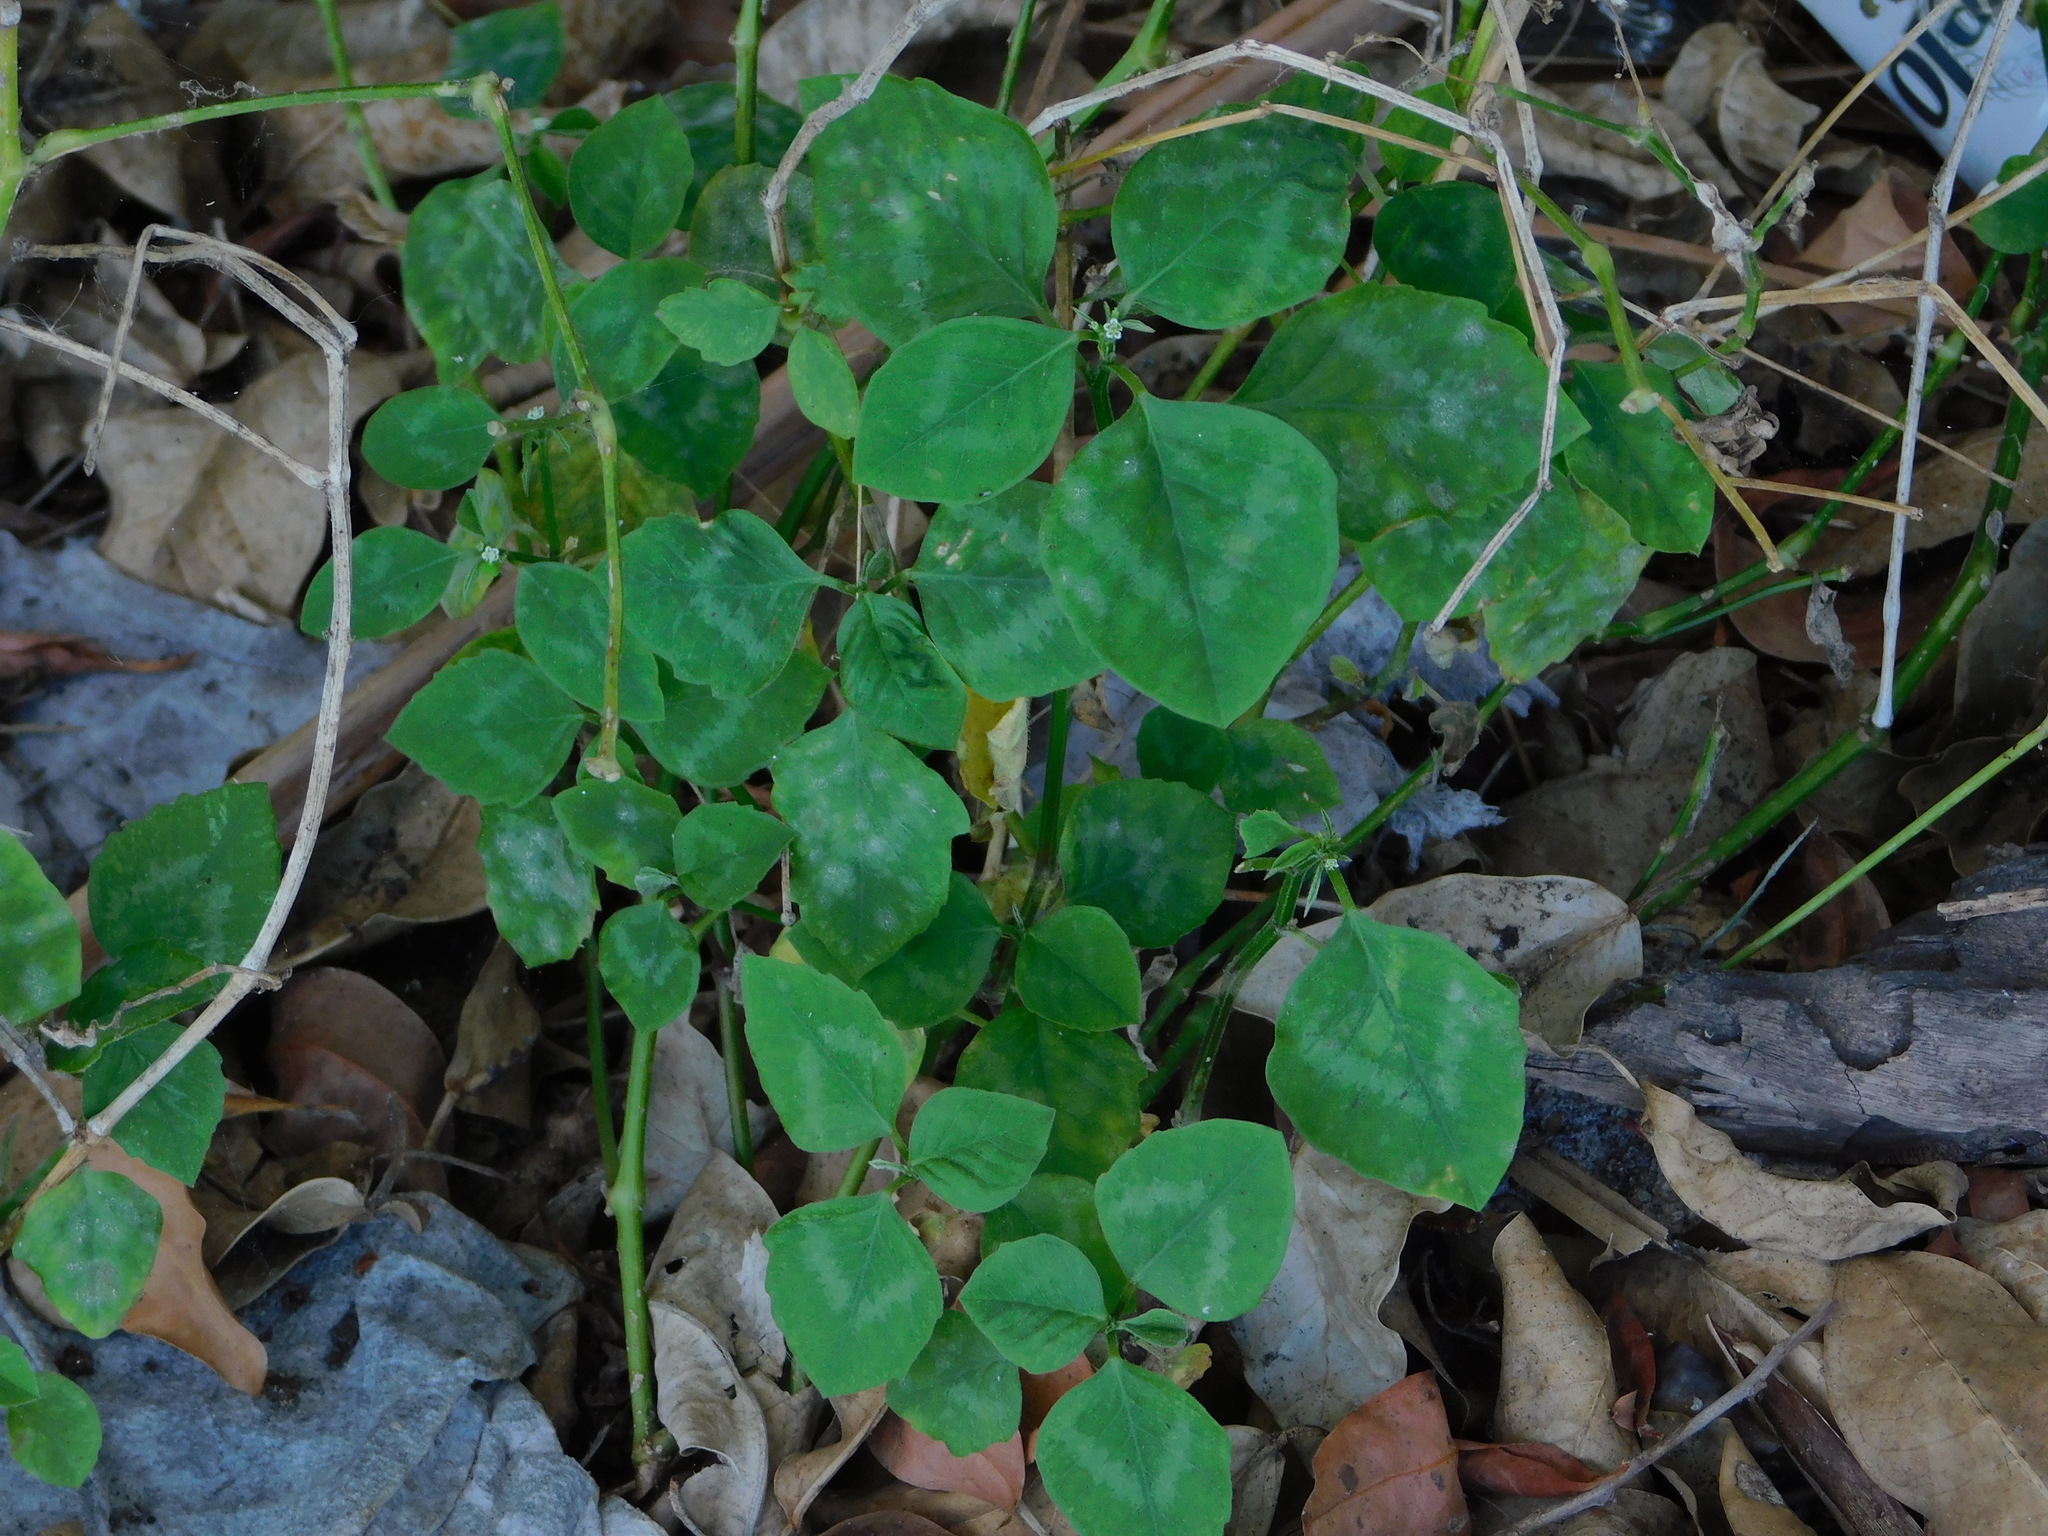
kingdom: Plantae
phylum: Tracheophyta
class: Magnoliopsida
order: Malpighiales
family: Euphorbiaceae
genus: Euphorbia
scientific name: Euphorbia graminea
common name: Grassleaf spurge
